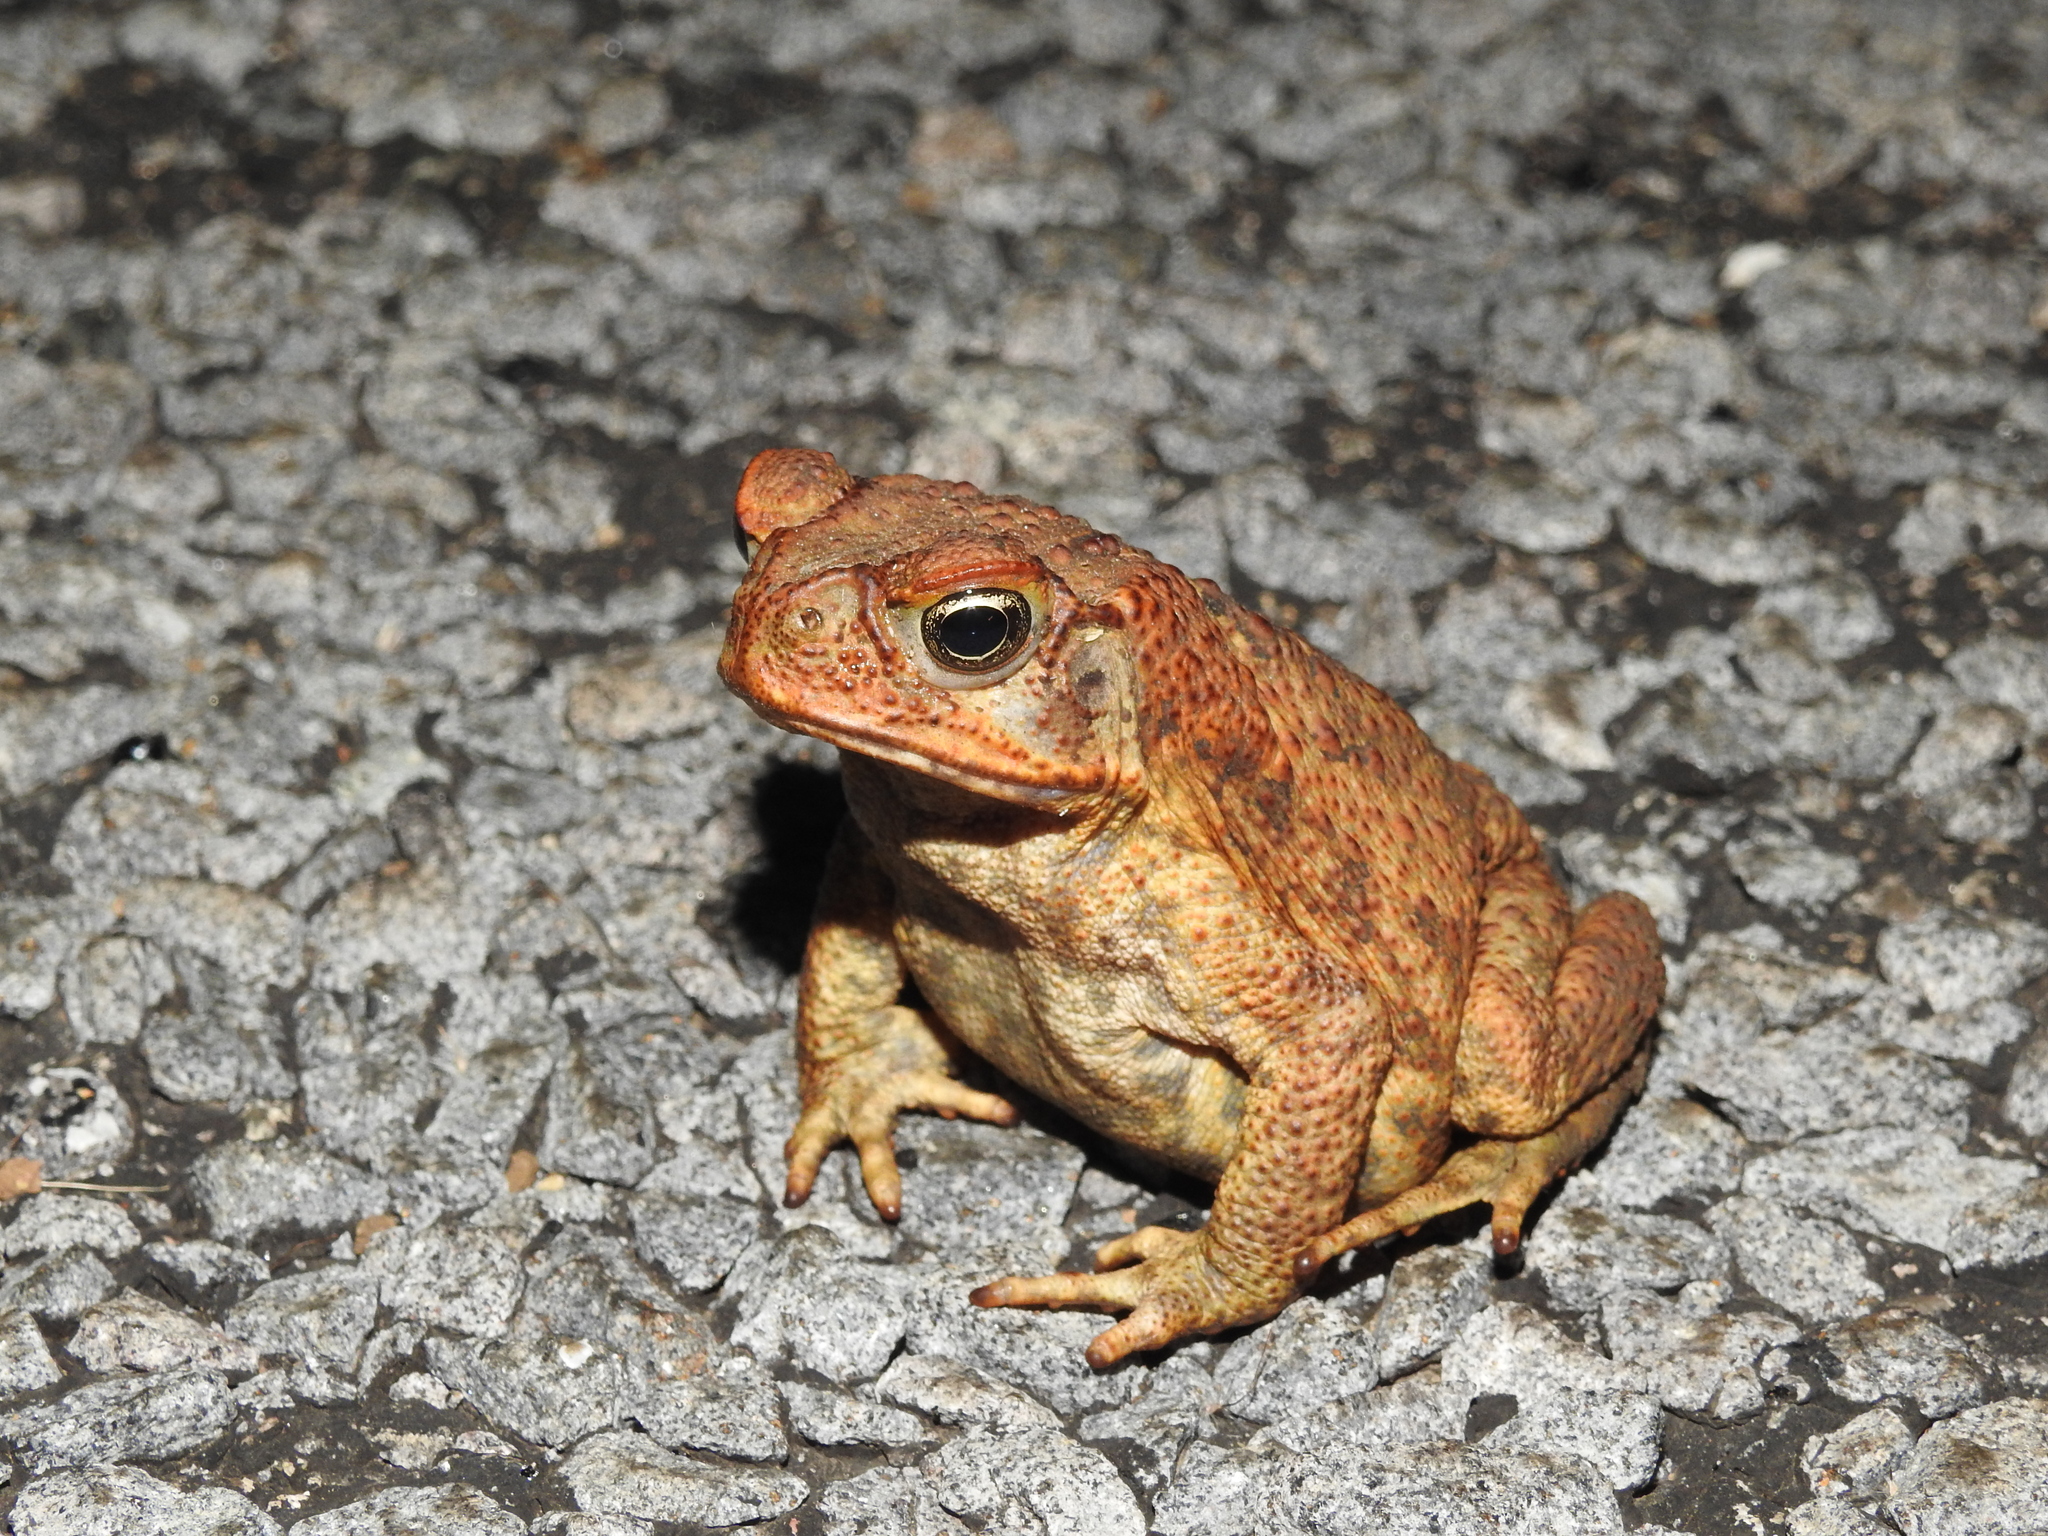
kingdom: Animalia
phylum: Chordata
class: Amphibia
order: Anura
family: Bufonidae
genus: Rhinella
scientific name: Rhinella marina
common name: Cane toad
